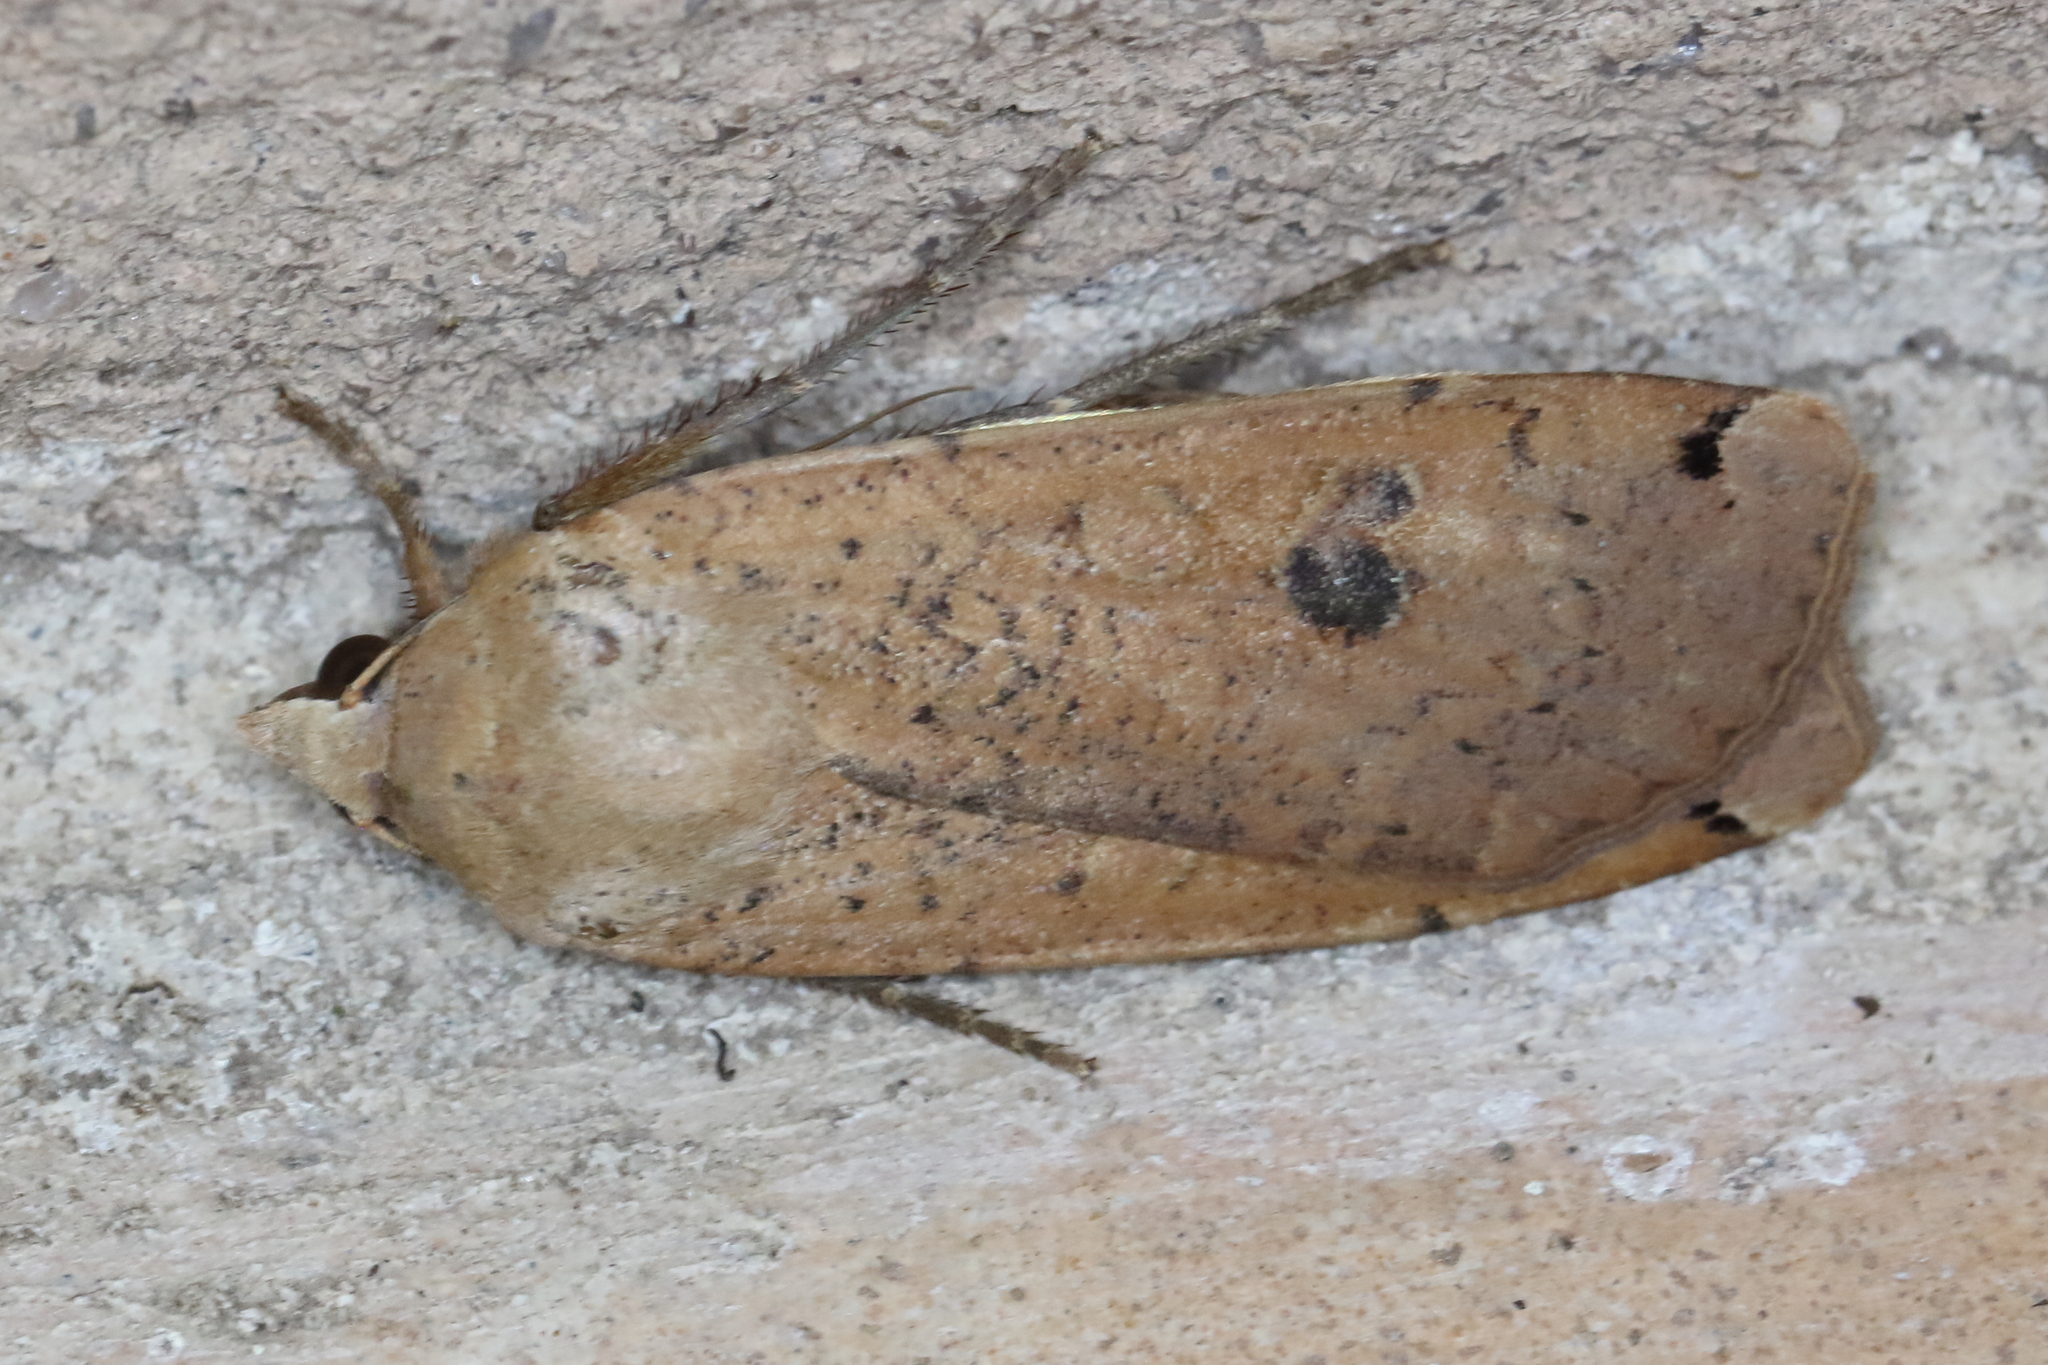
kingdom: Animalia
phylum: Arthropoda
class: Insecta
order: Lepidoptera
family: Noctuidae
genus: Noctua
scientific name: Noctua pronuba
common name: Large yellow underwing
